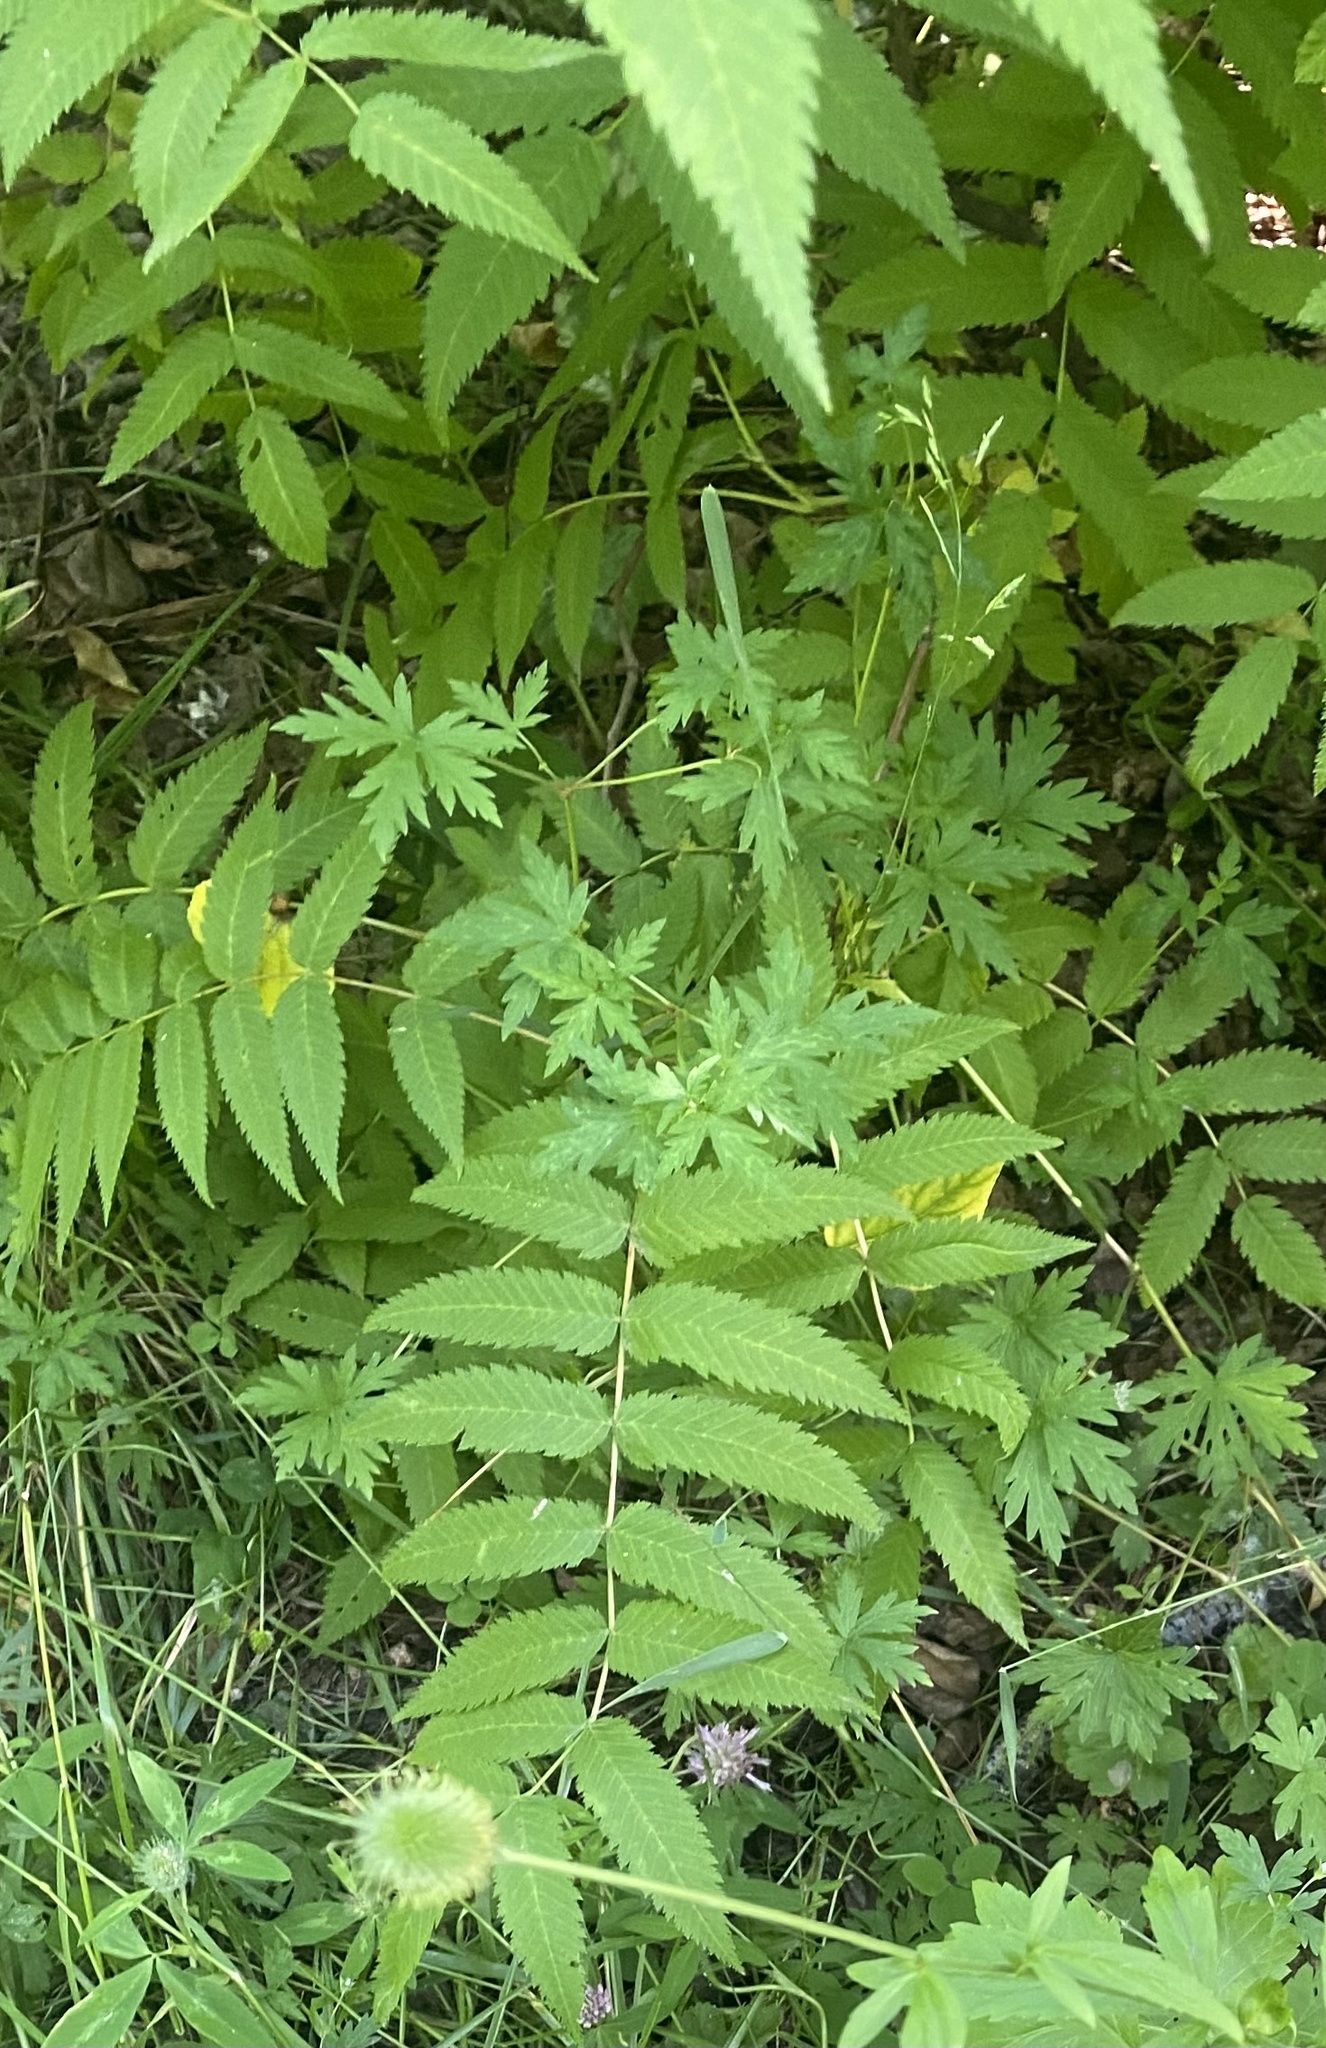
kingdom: Plantae
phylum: Tracheophyta
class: Magnoliopsida
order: Rosales
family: Rosaceae
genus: Sorbaria
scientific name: Sorbaria sorbifolia
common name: False spiraea
